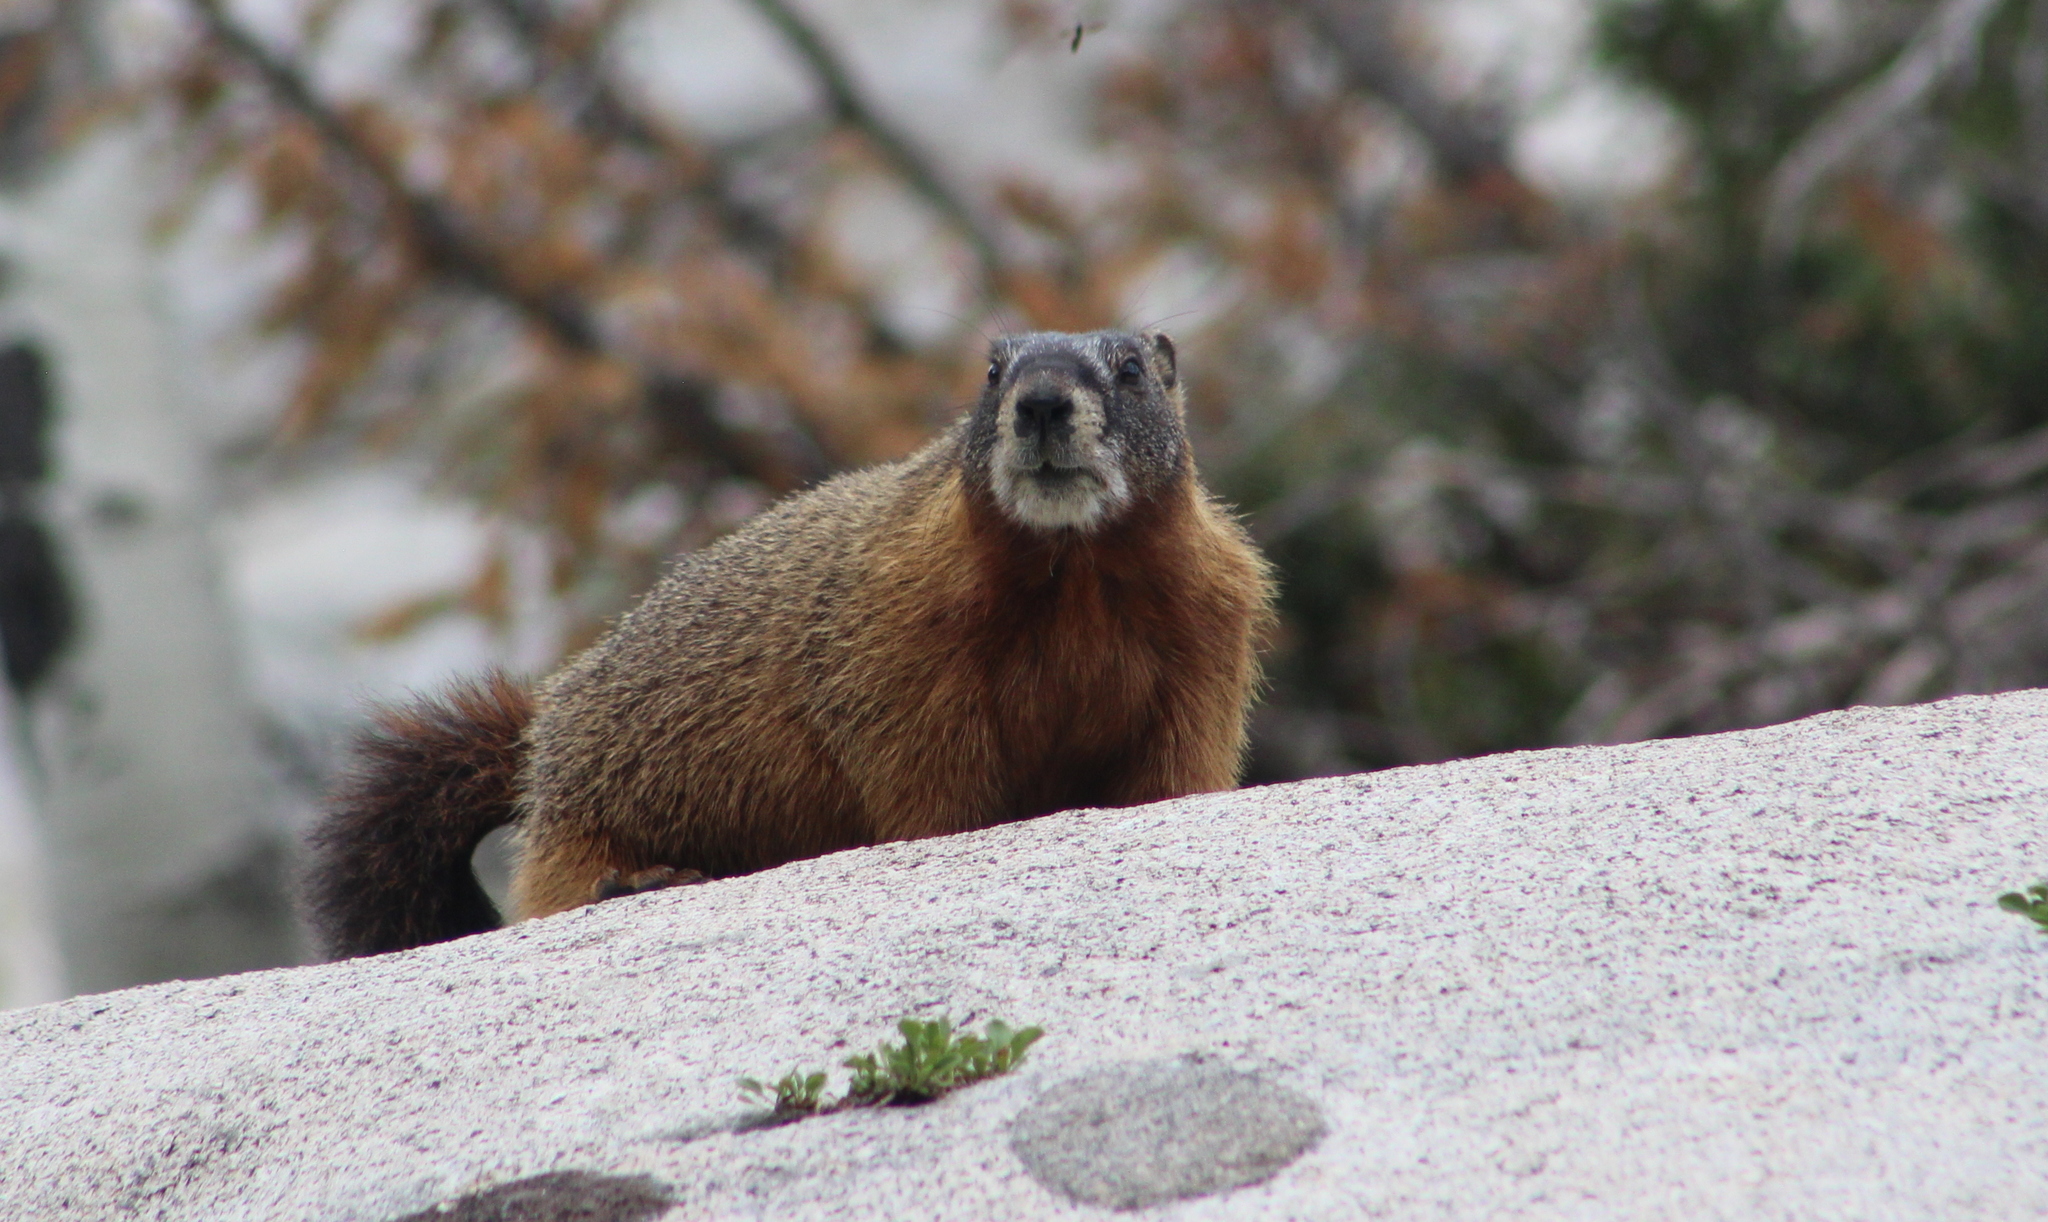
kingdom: Animalia
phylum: Chordata
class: Mammalia
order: Rodentia
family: Sciuridae
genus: Marmota
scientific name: Marmota flaviventris
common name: Yellow-bellied marmot
